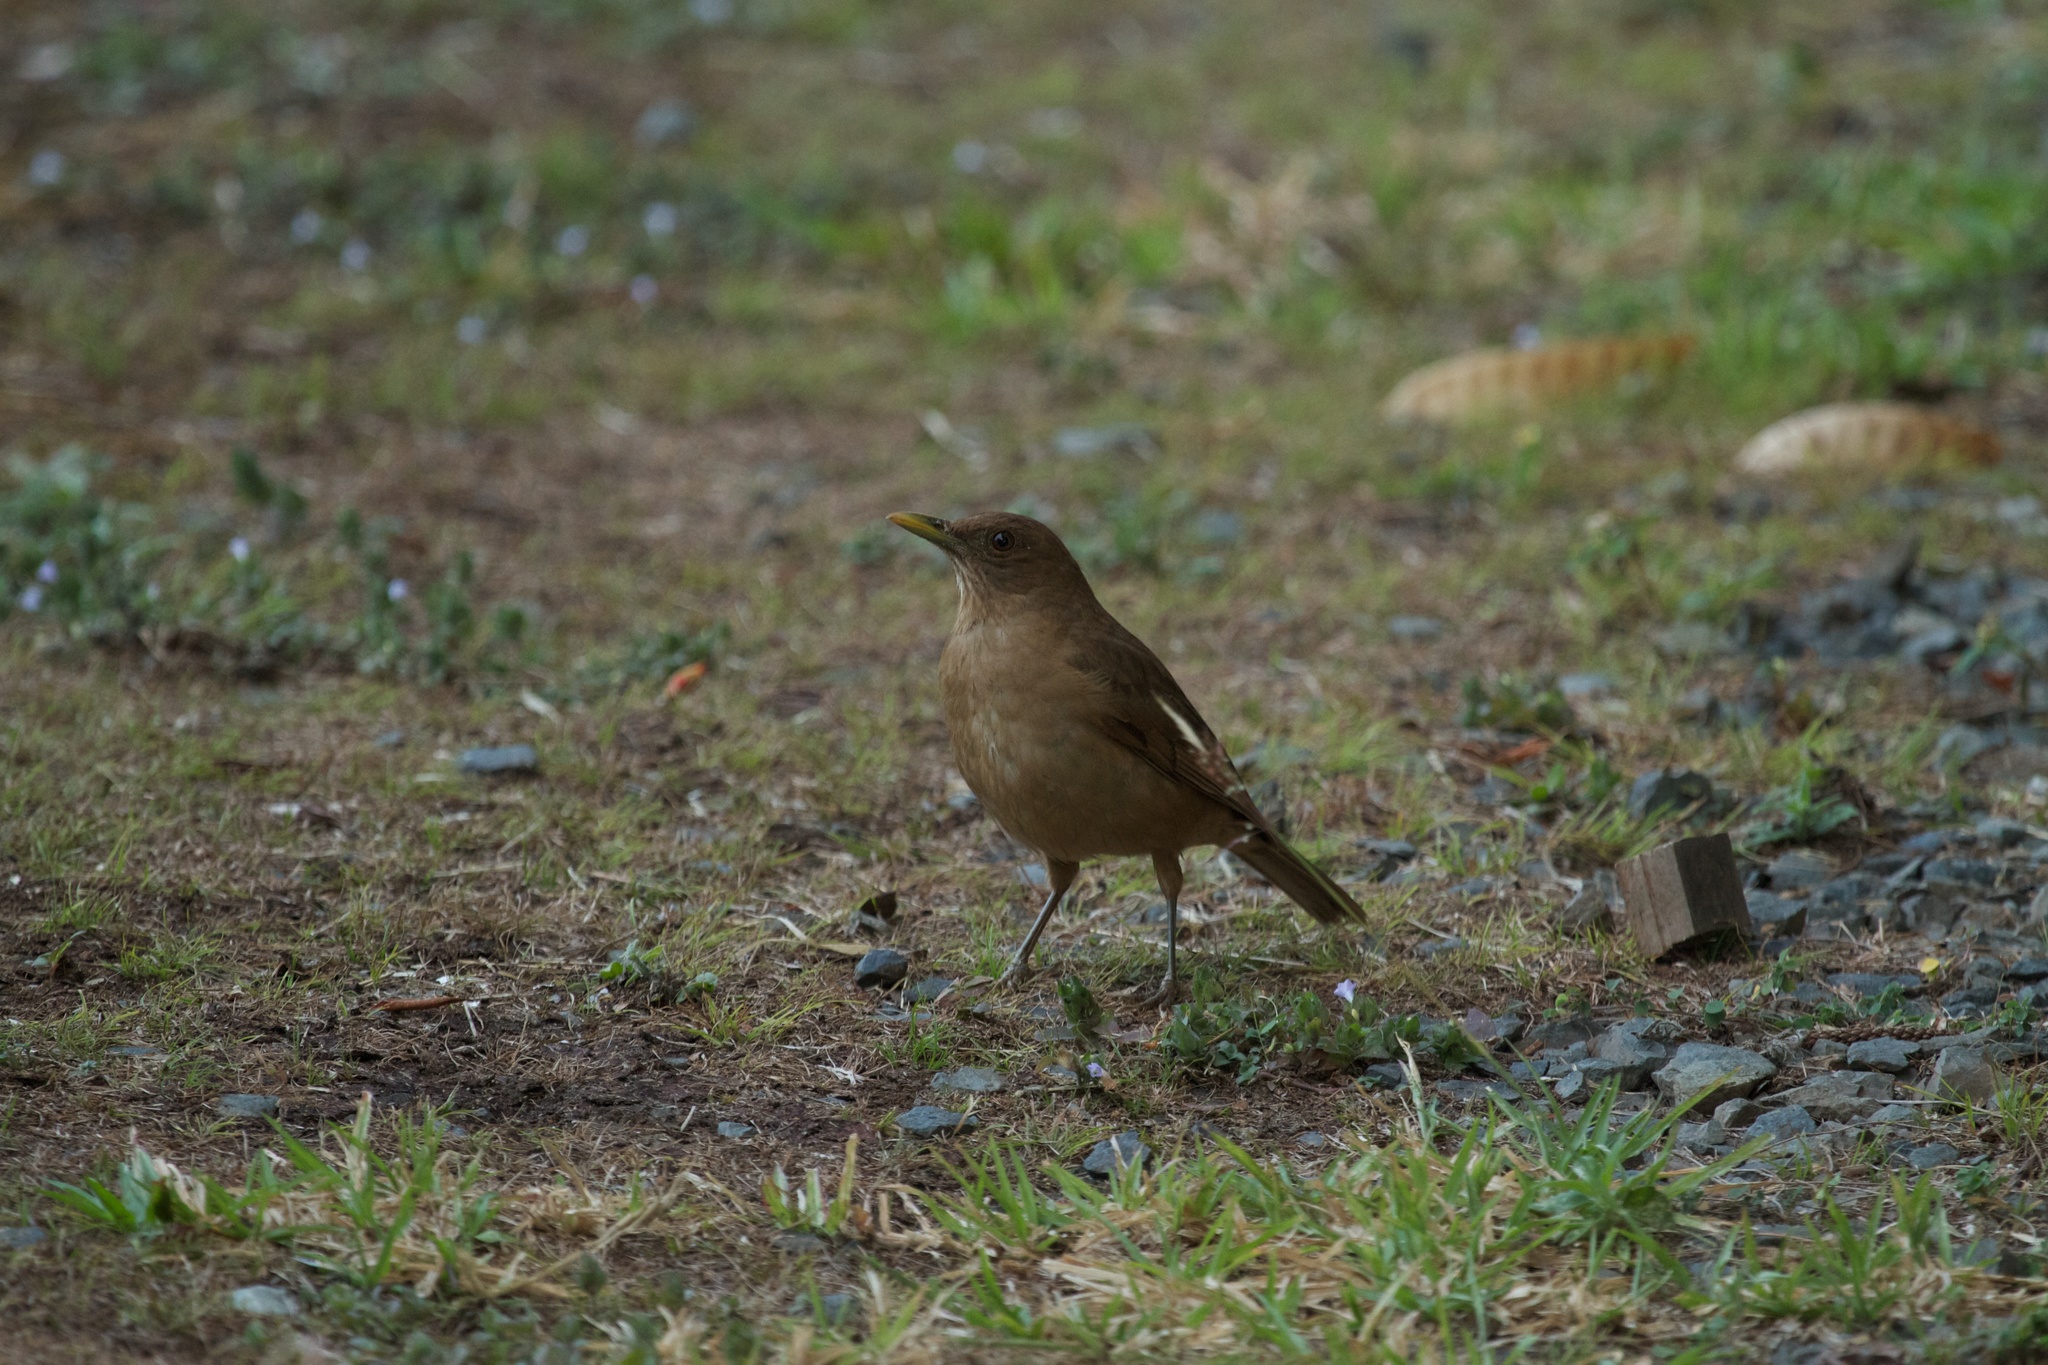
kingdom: Animalia
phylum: Chordata
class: Aves
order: Passeriformes
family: Turdidae
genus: Turdus
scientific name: Turdus grayi
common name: Clay-colored thrush
